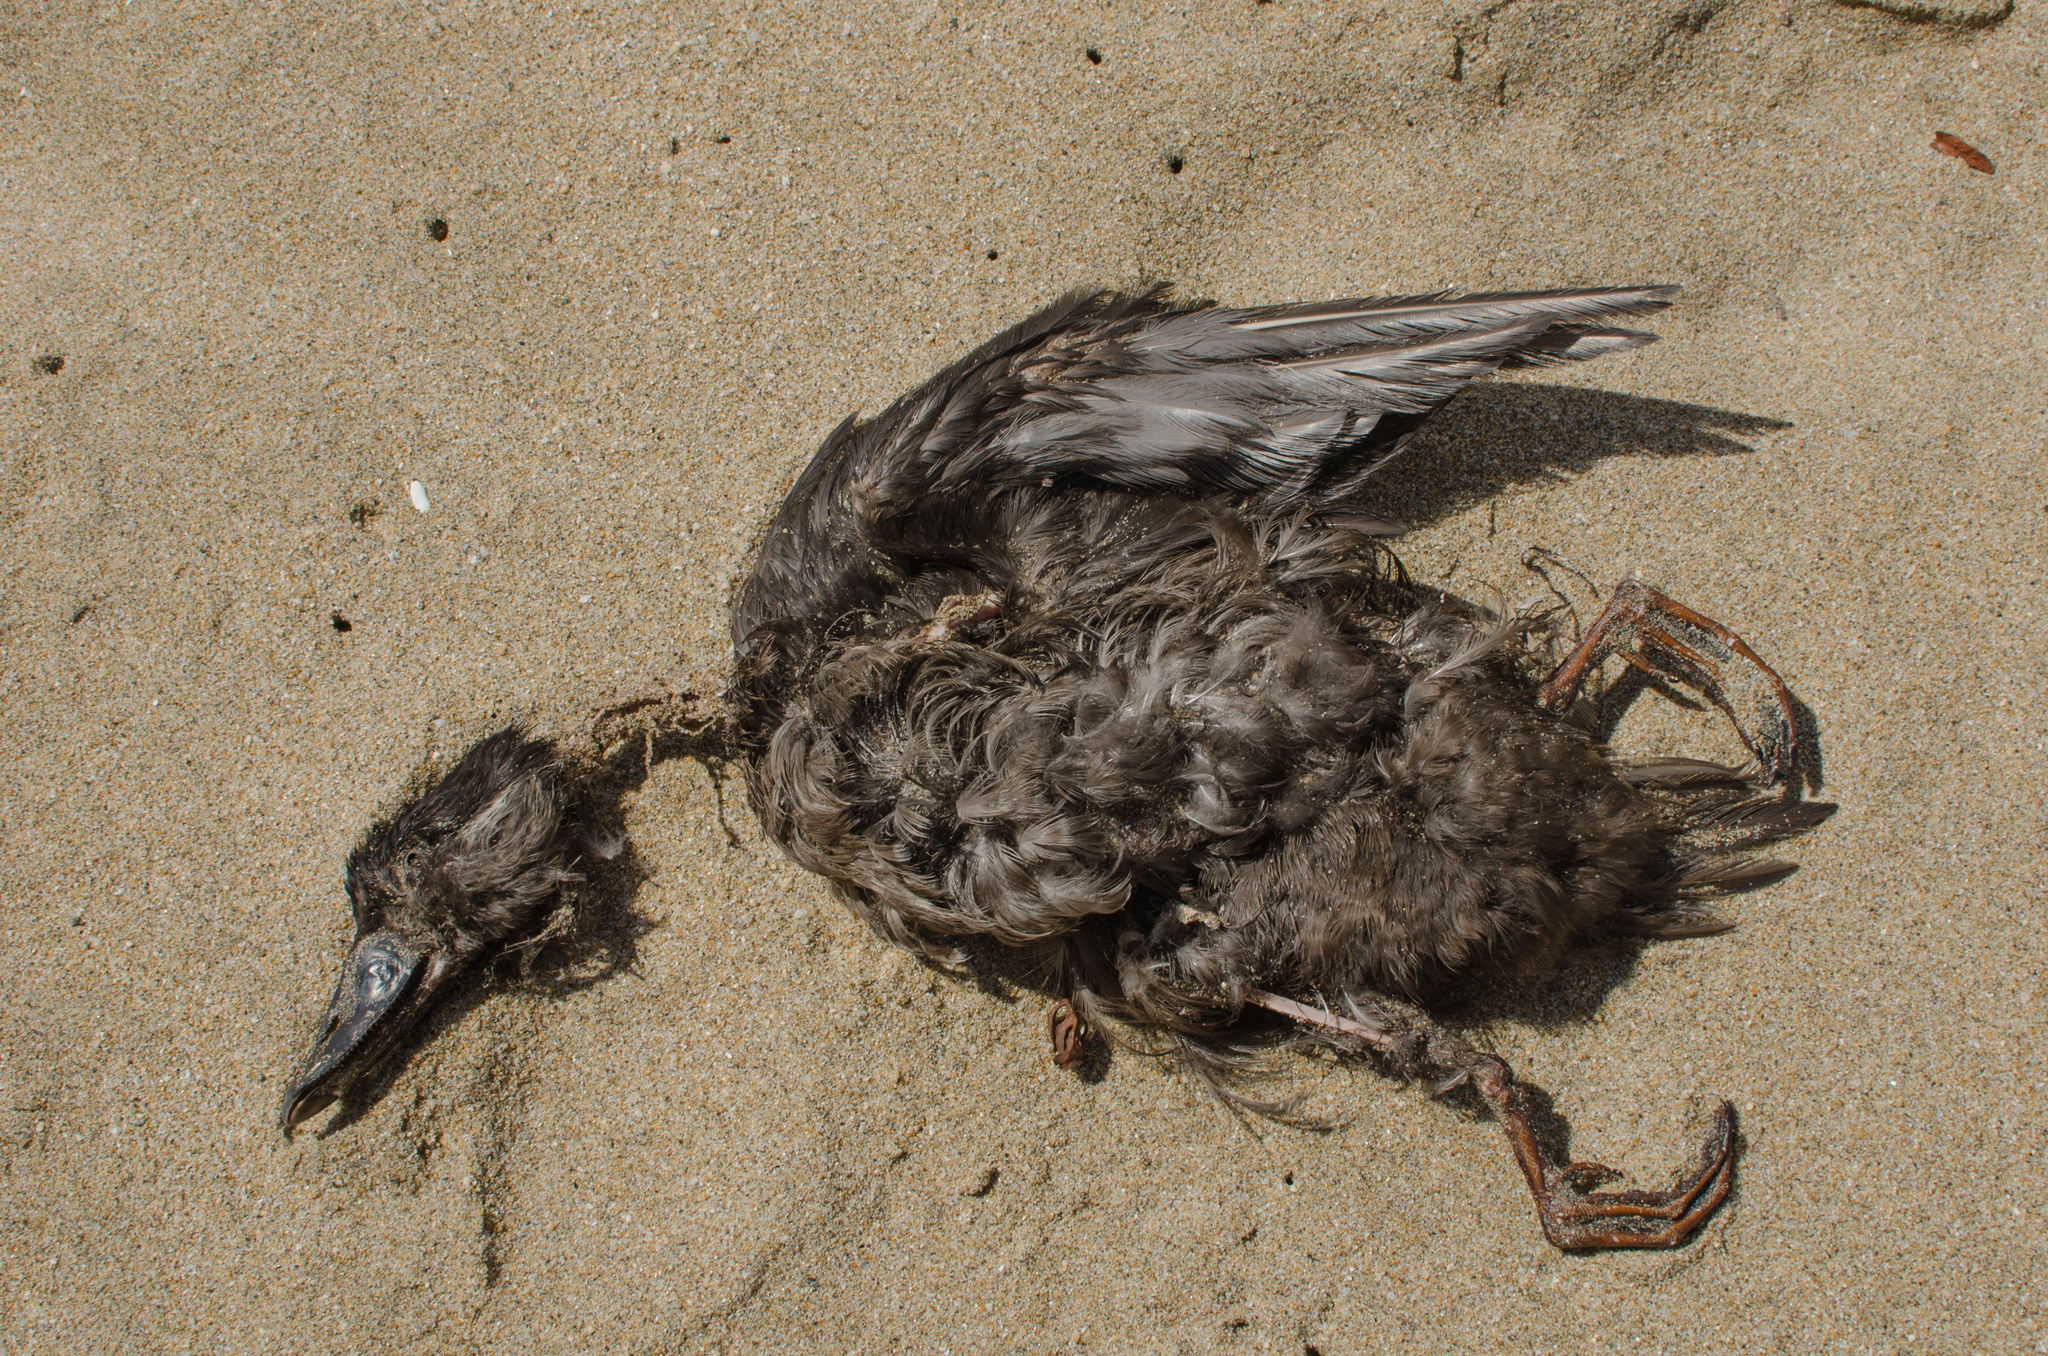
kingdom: Animalia
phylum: Chordata
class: Aves
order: Anseriformes
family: Anatidae
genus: Melanitta
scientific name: Melanitta perspicillata
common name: Surf scoter
